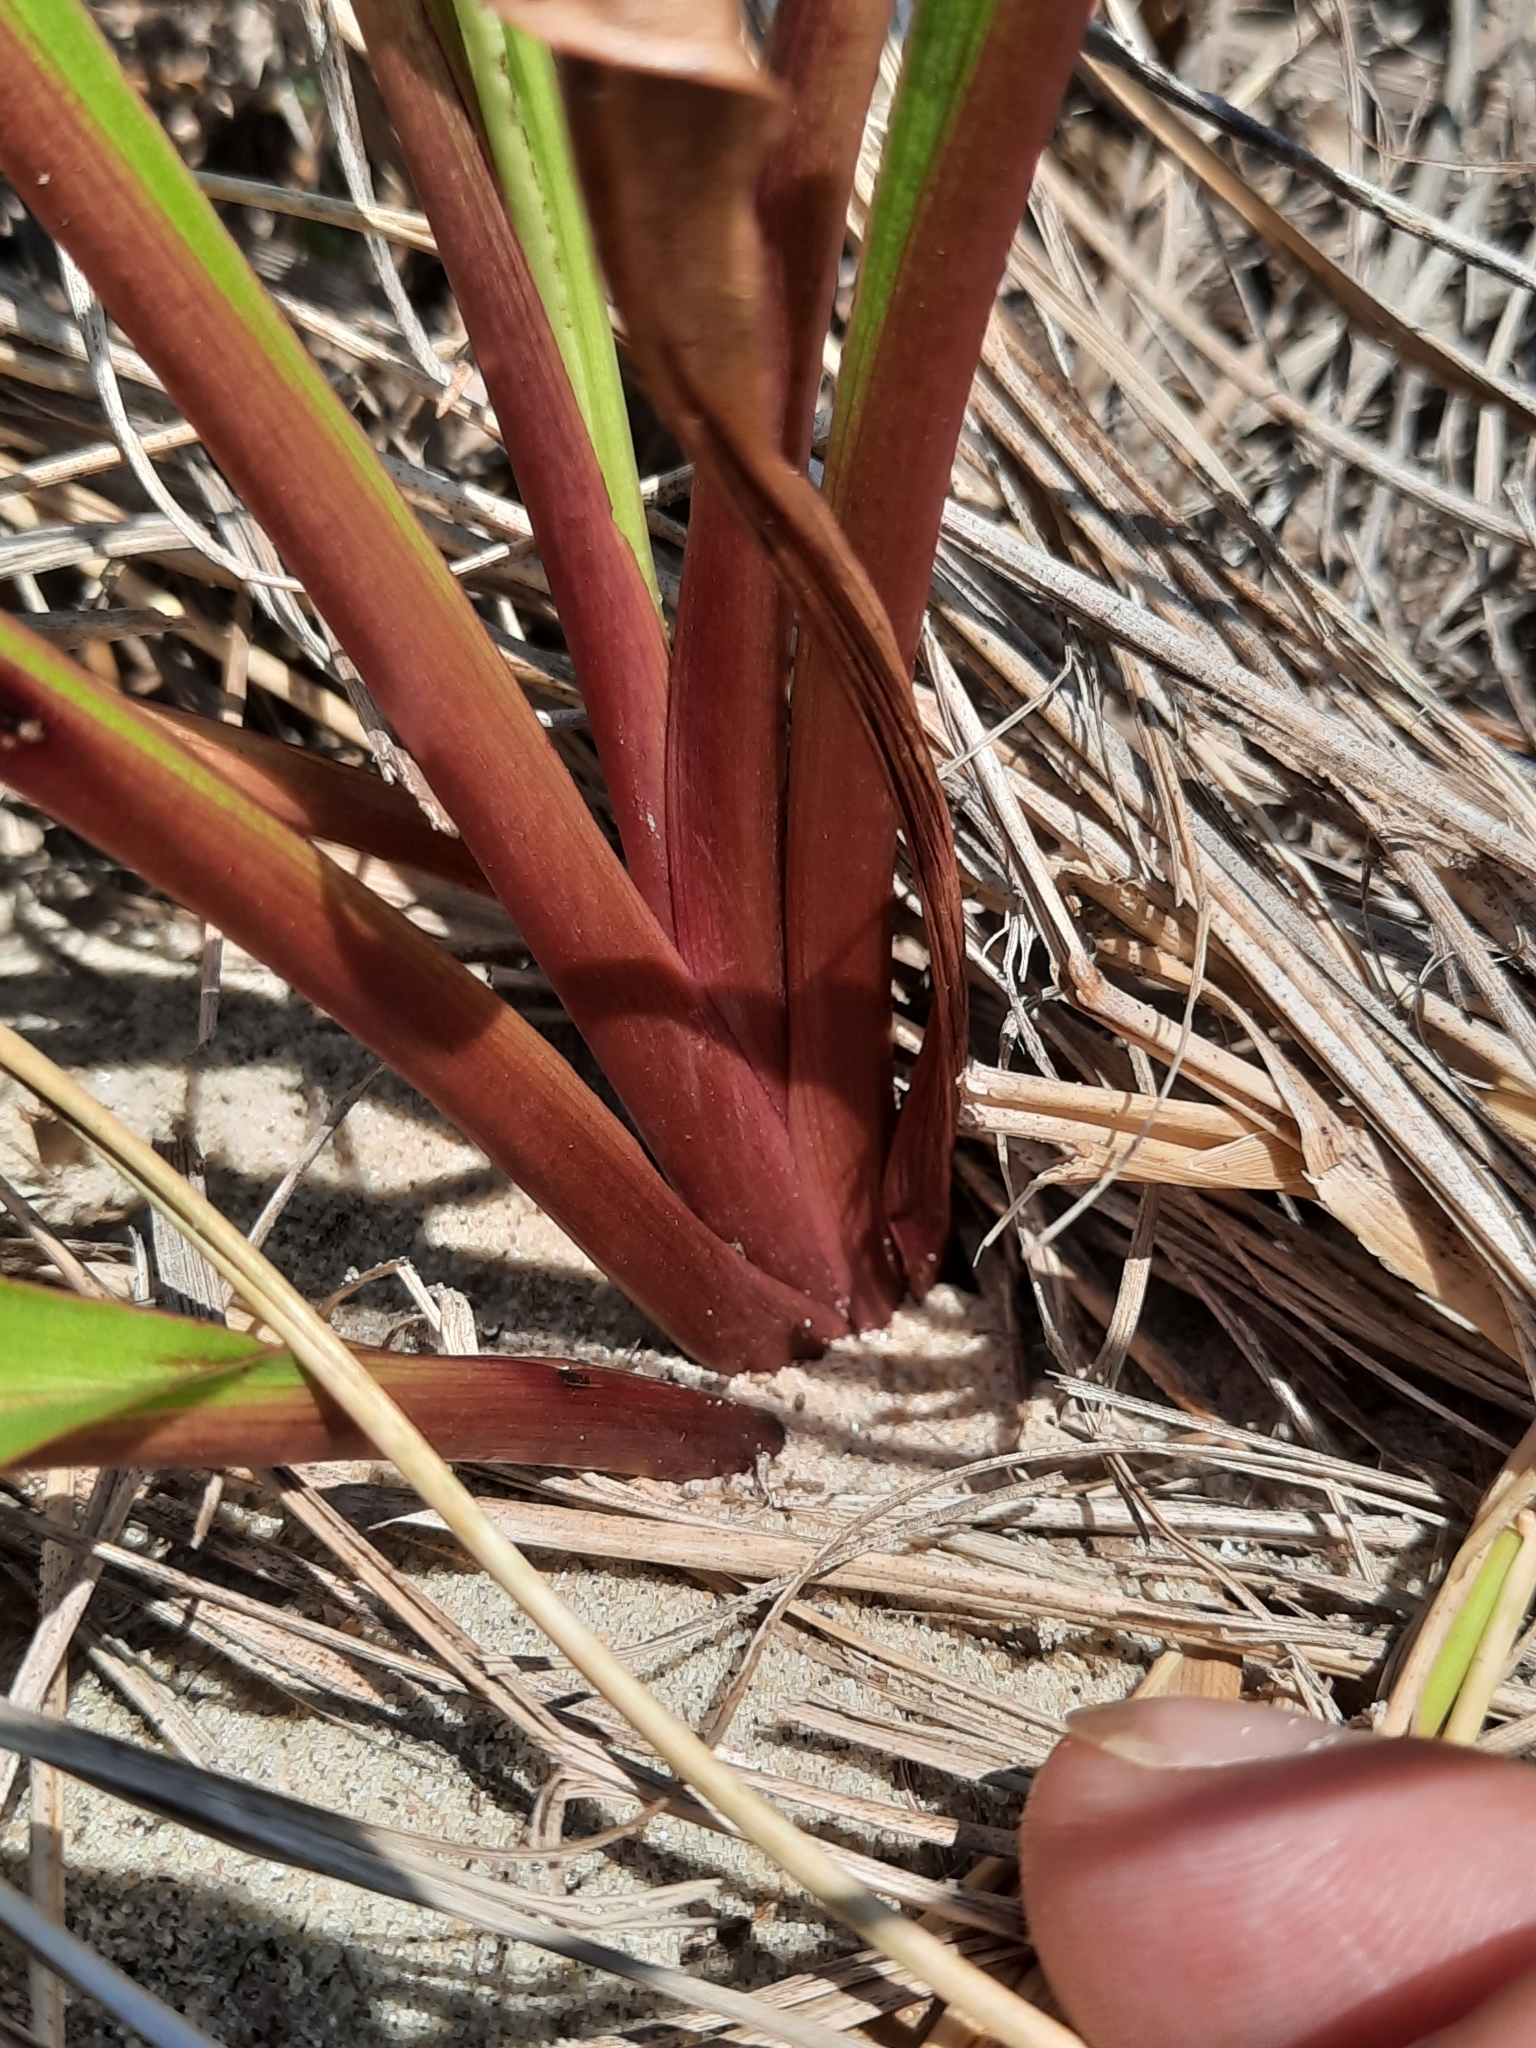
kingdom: Plantae
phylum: Tracheophyta
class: Magnoliopsida
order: Asterales
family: Asteraceae
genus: Solidago
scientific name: Solidago sempervirens
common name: Salt-marsh goldenrod
